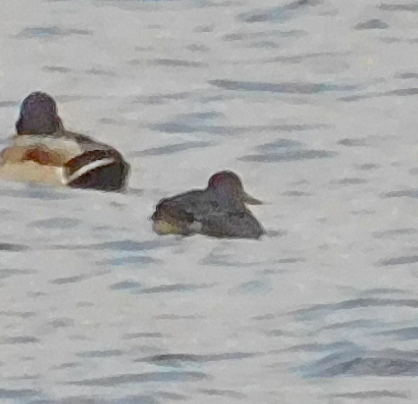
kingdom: Animalia
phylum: Chordata
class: Aves
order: Anseriformes
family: Anatidae
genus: Anas
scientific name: Anas platyrhynchos
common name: Mallard
